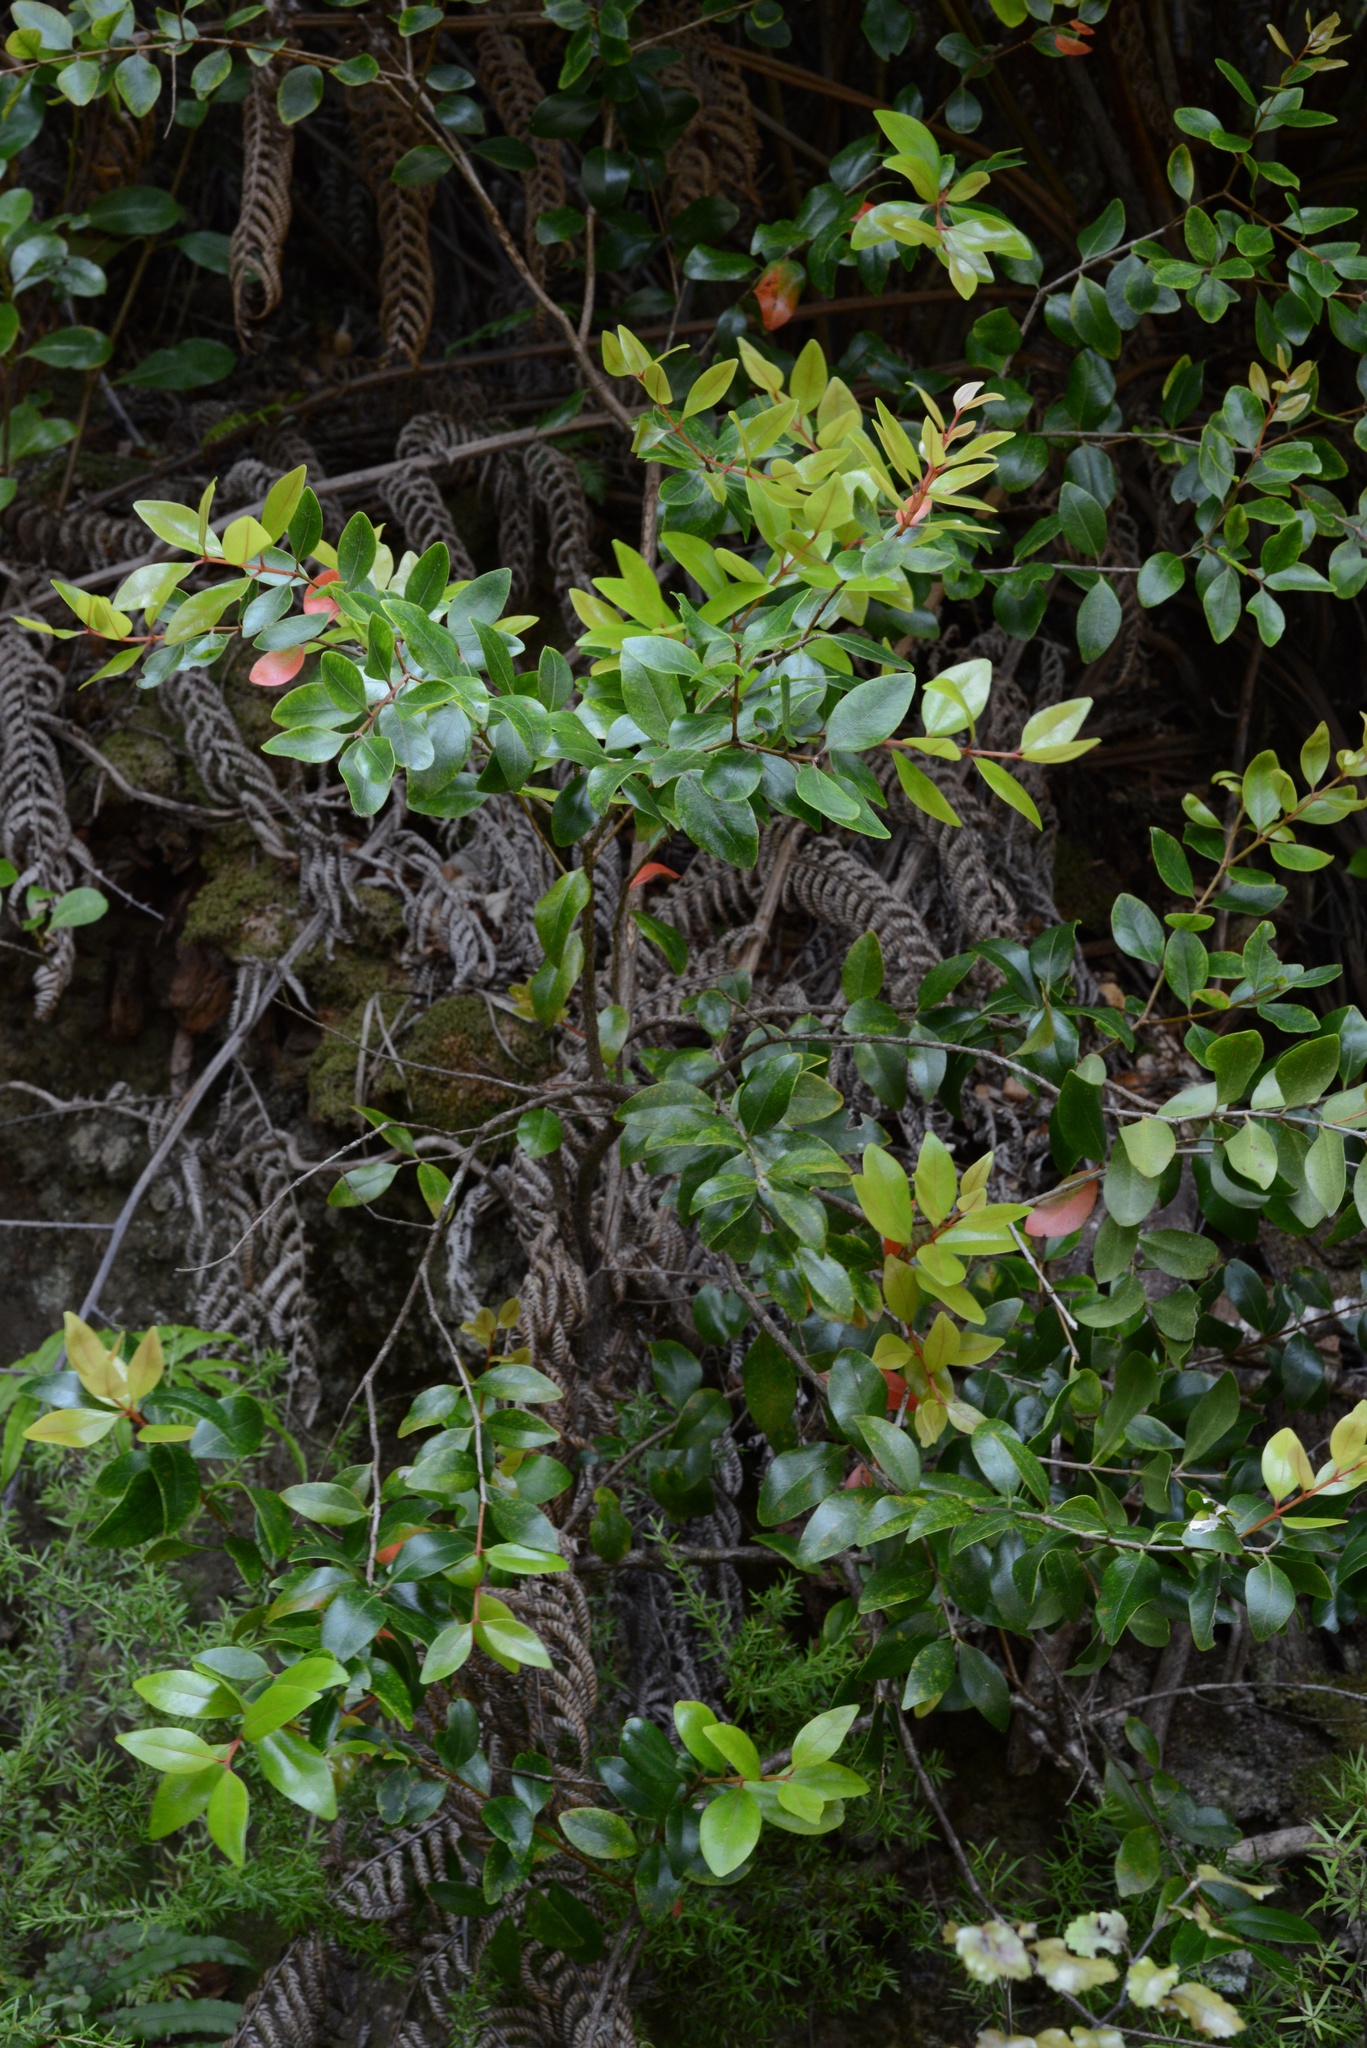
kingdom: Plantae
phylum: Tracheophyta
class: Magnoliopsida
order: Myrtales
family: Myrtaceae
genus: Metrosideros
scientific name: Metrosideros robusta
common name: Northern rata
